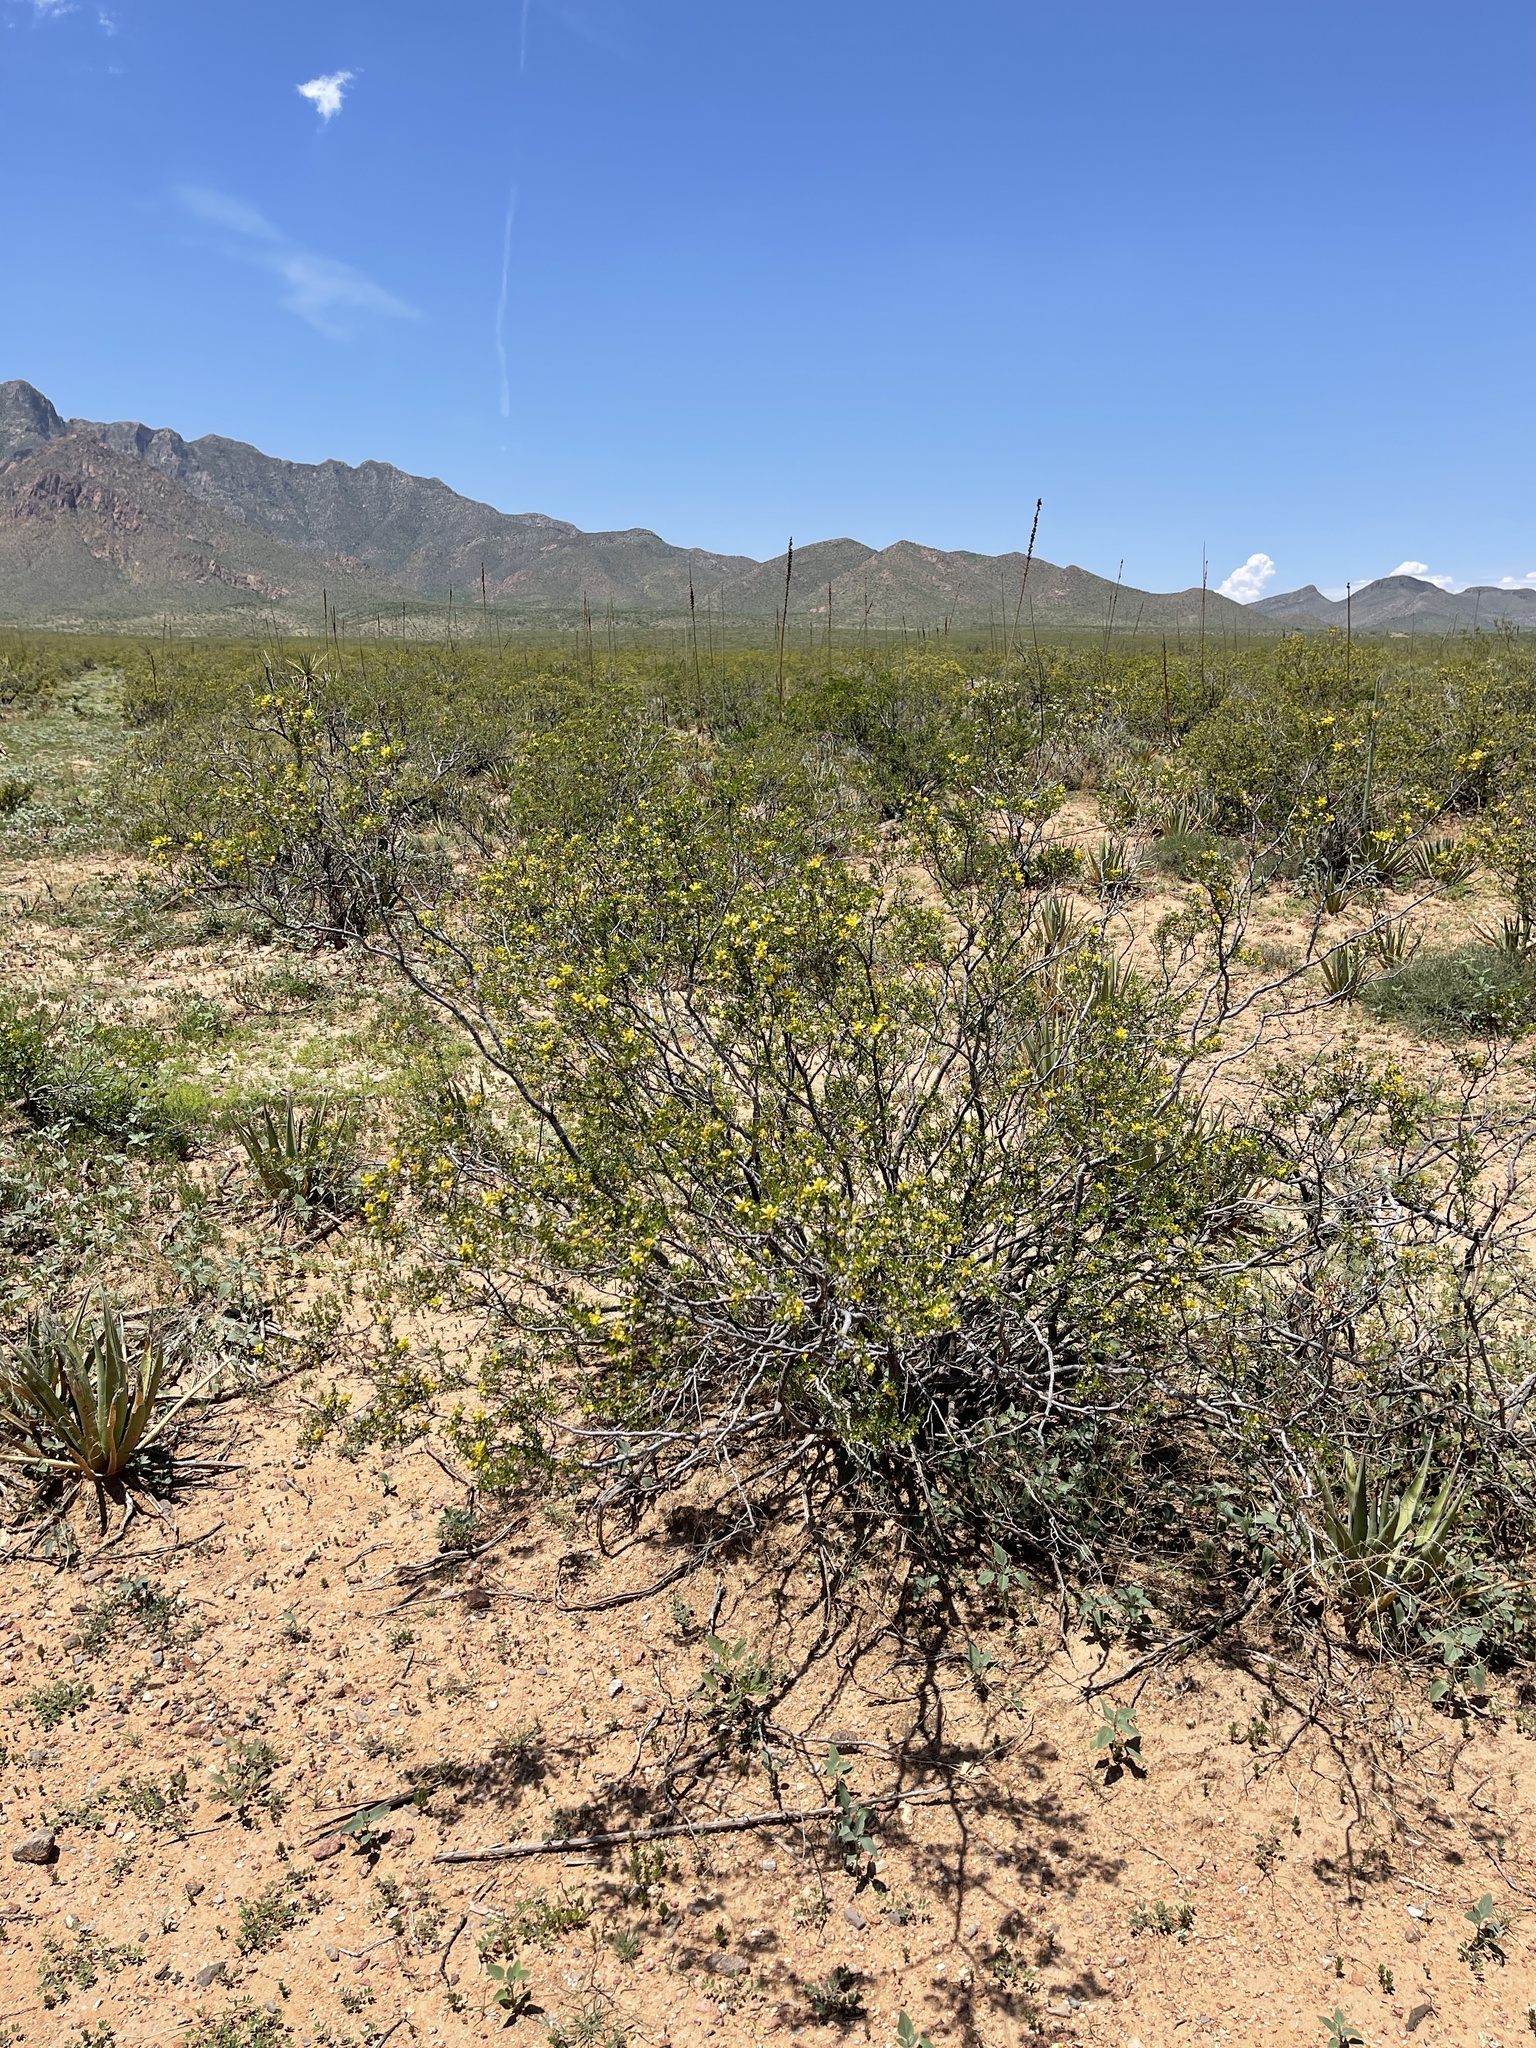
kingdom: Plantae
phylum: Tracheophyta
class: Magnoliopsida
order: Zygophyllales
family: Zygophyllaceae
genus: Larrea
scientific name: Larrea tridentata
